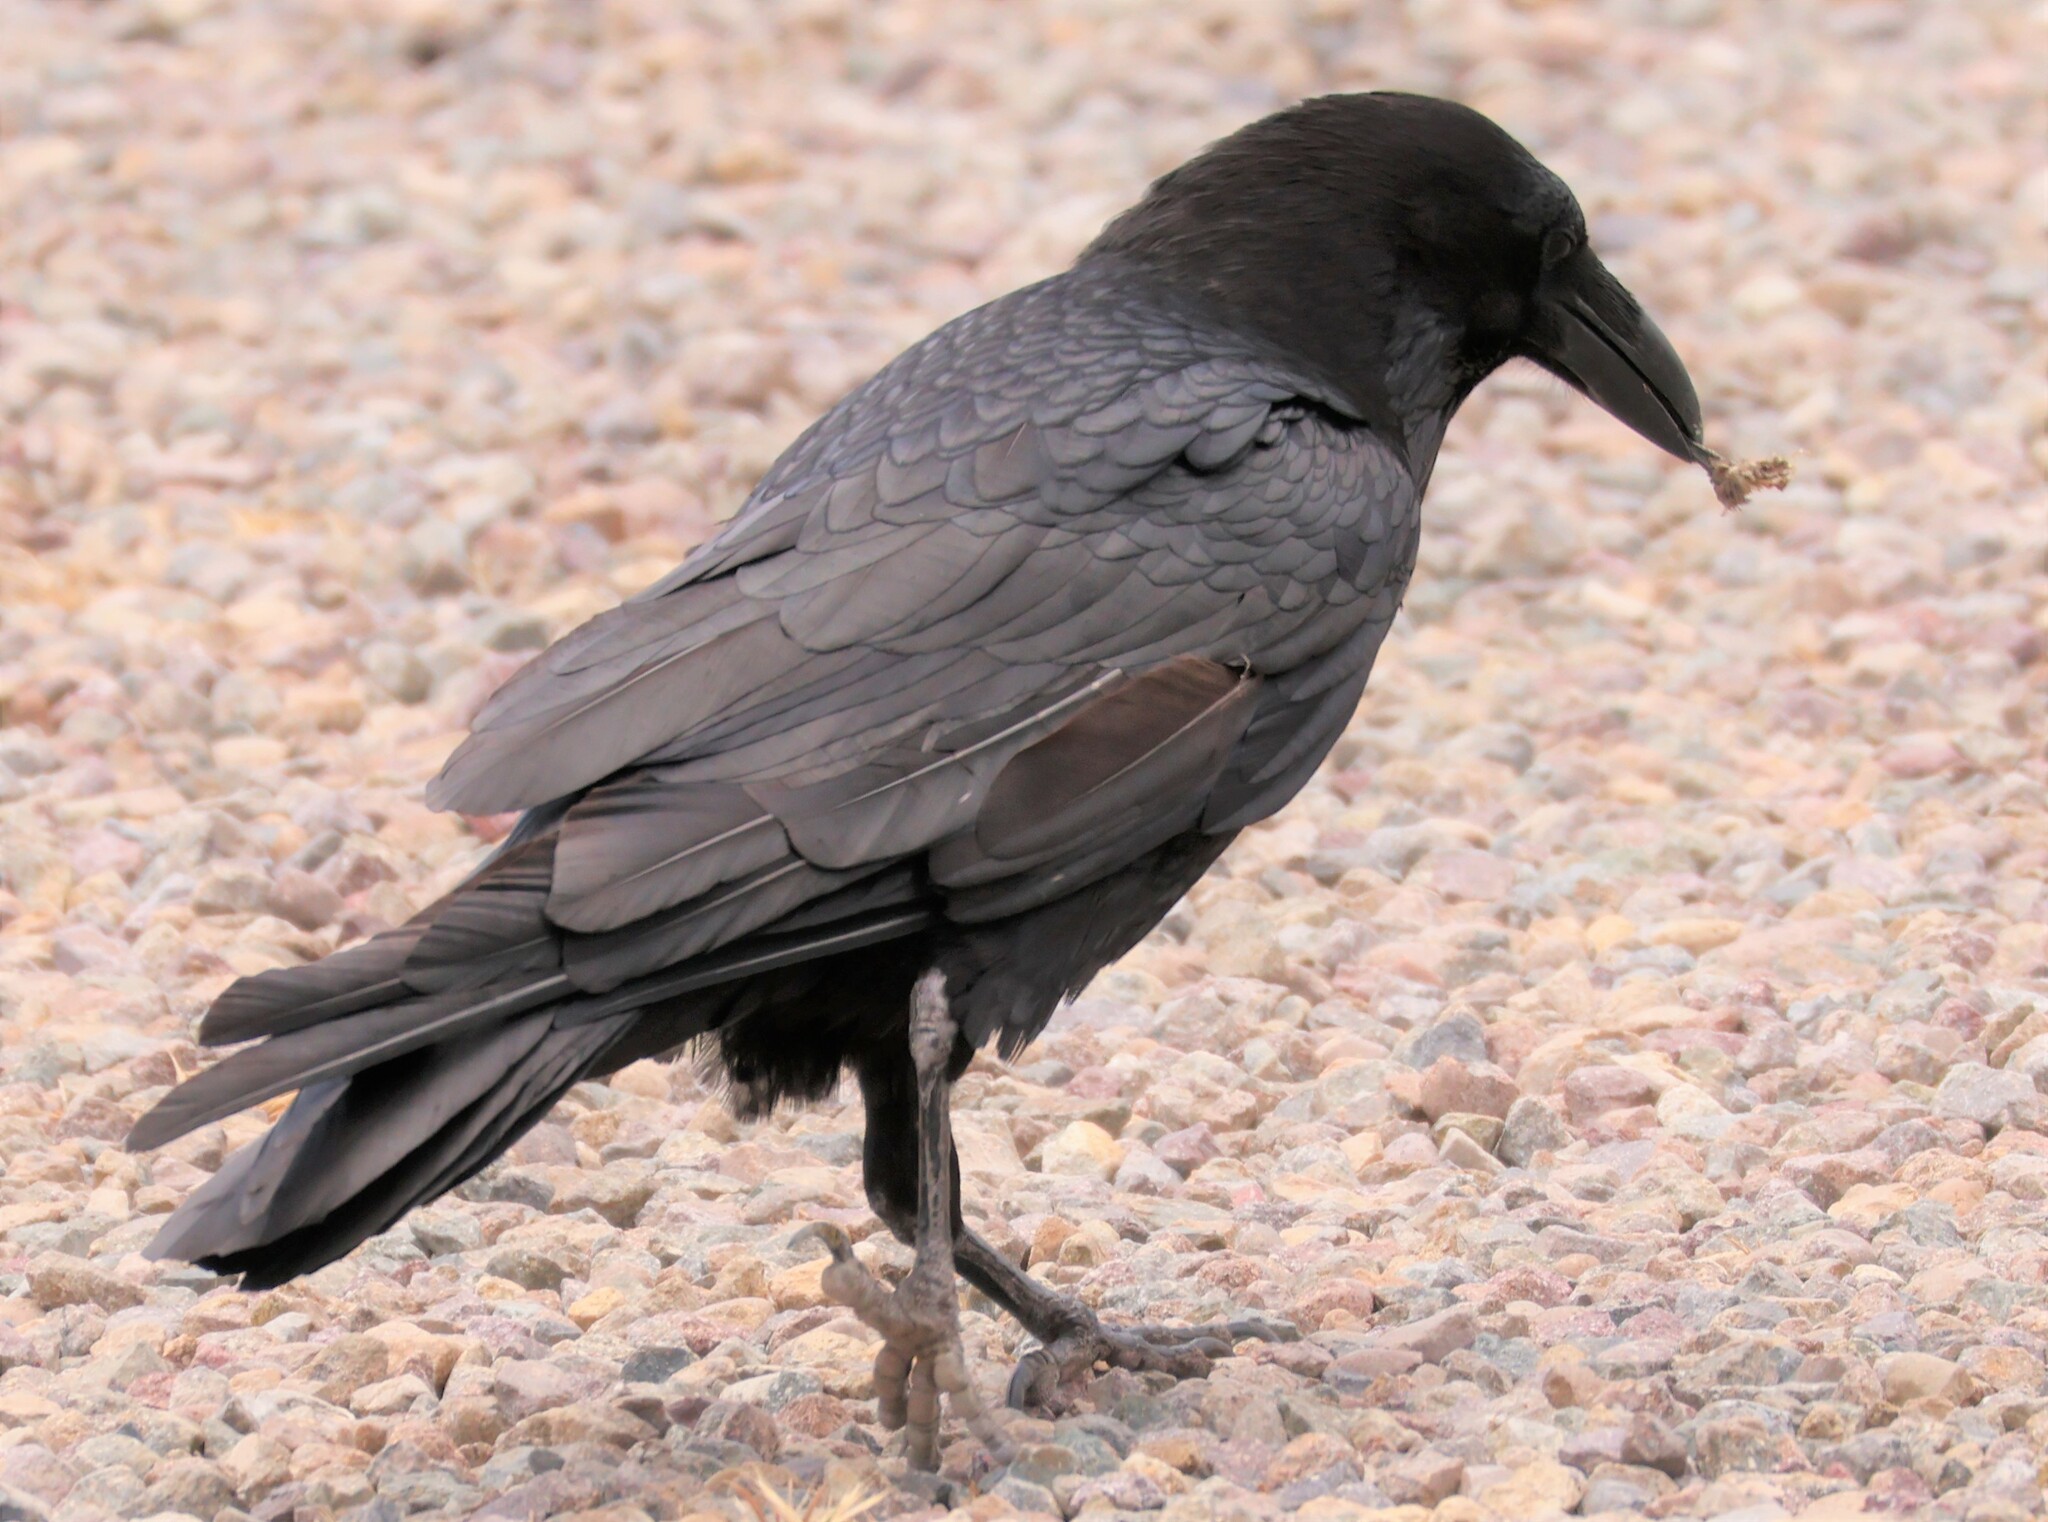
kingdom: Animalia
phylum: Chordata
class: Aves
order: Passeriformes
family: Corvidae
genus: Corvus
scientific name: Corvus corax
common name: Common raven
